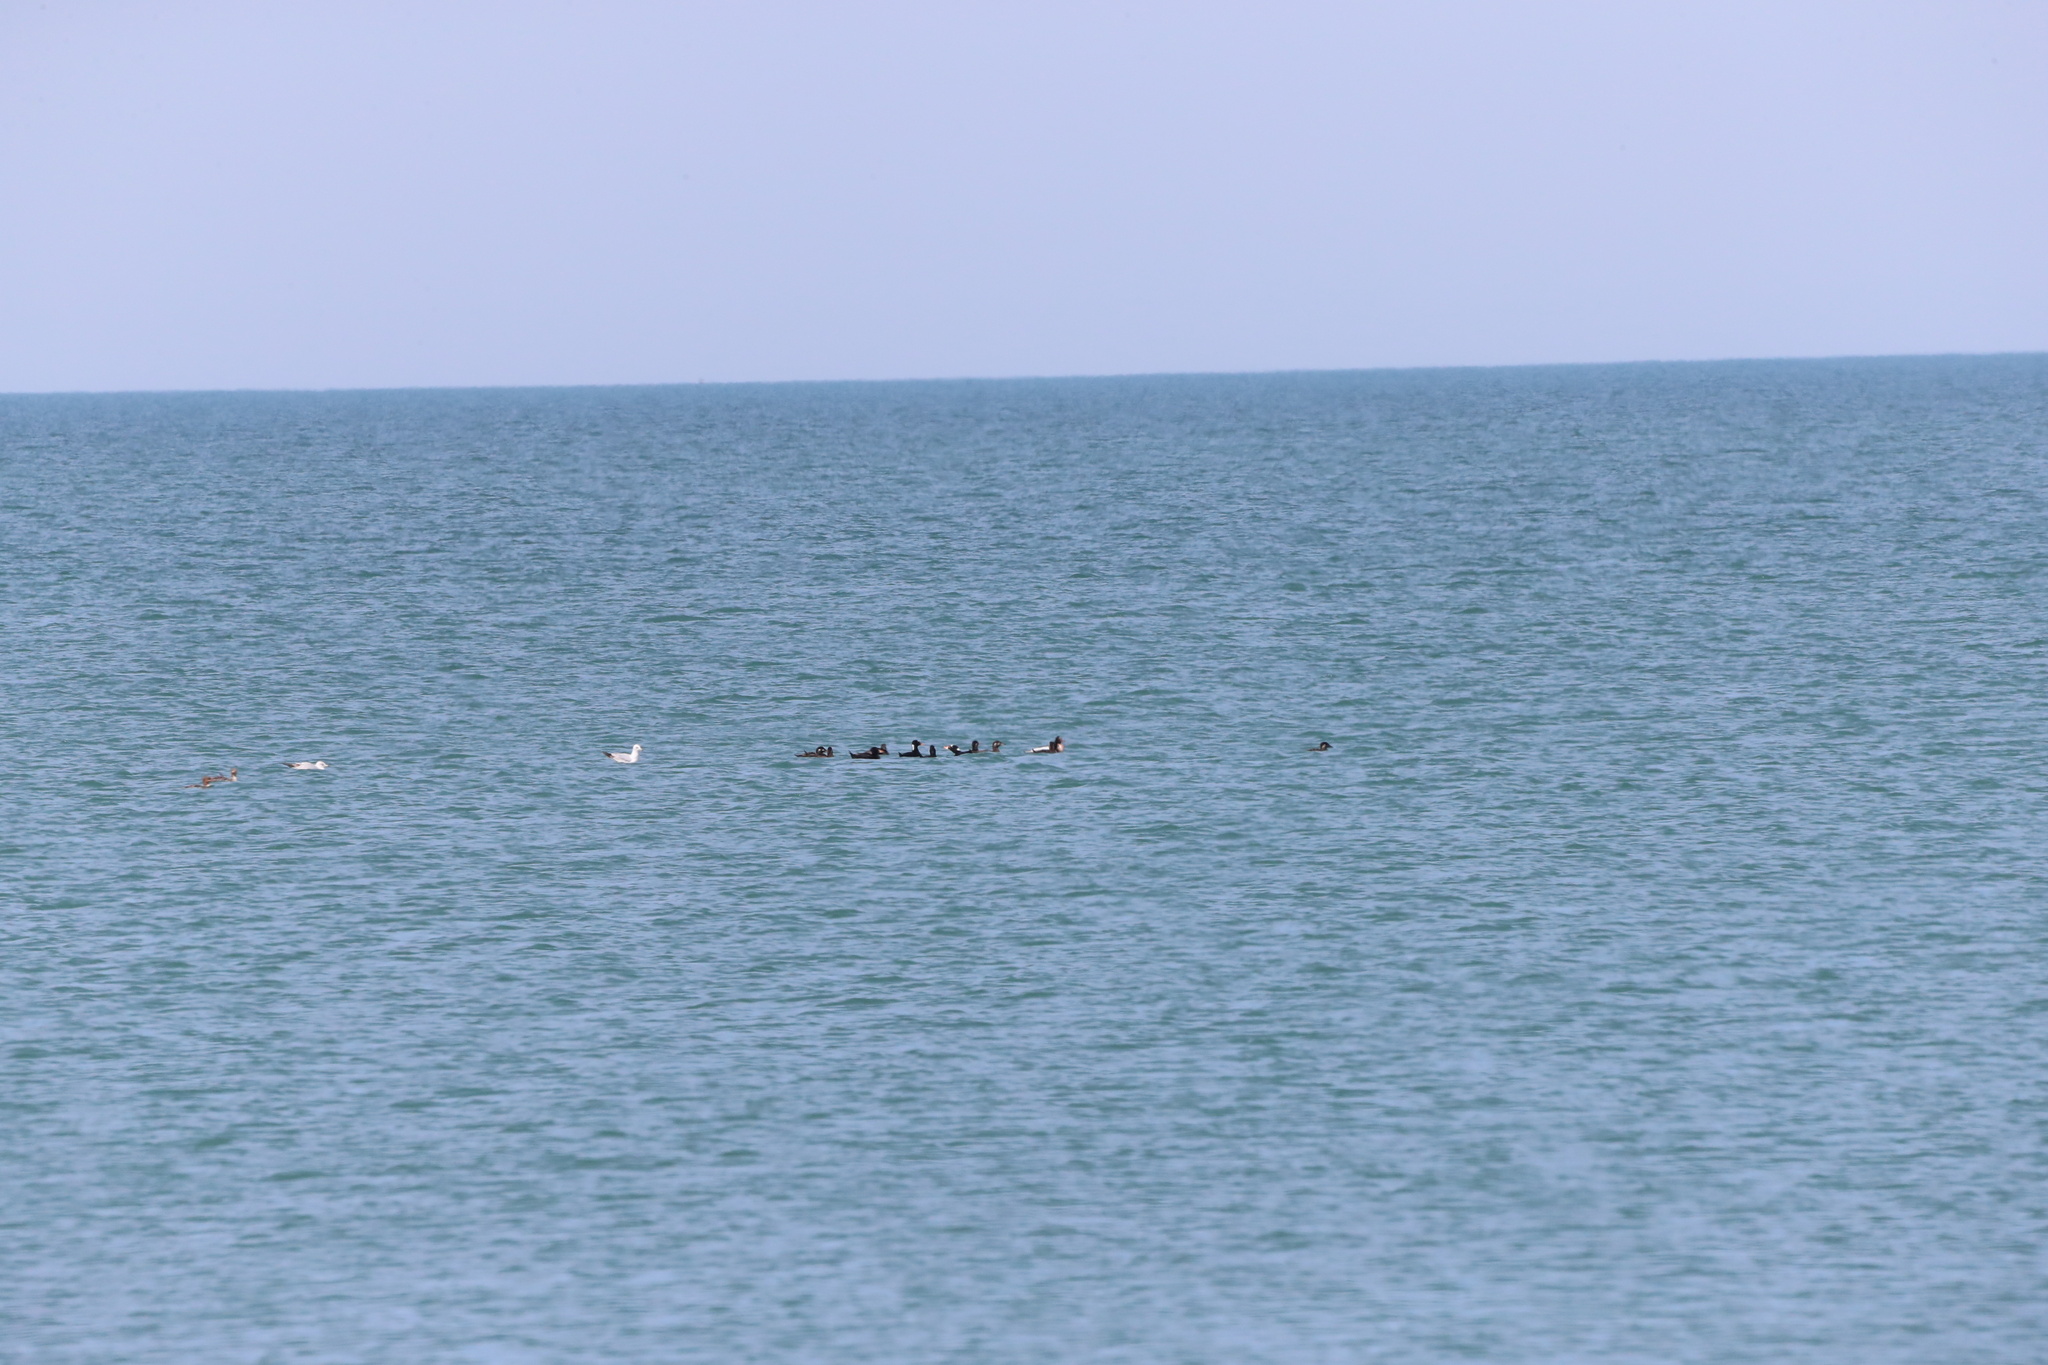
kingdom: Animalia
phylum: Chordata
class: Aves
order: Anseriformes
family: Anatidae
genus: Melanitta
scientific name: Melanitta perspicillata
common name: Surf scoter
